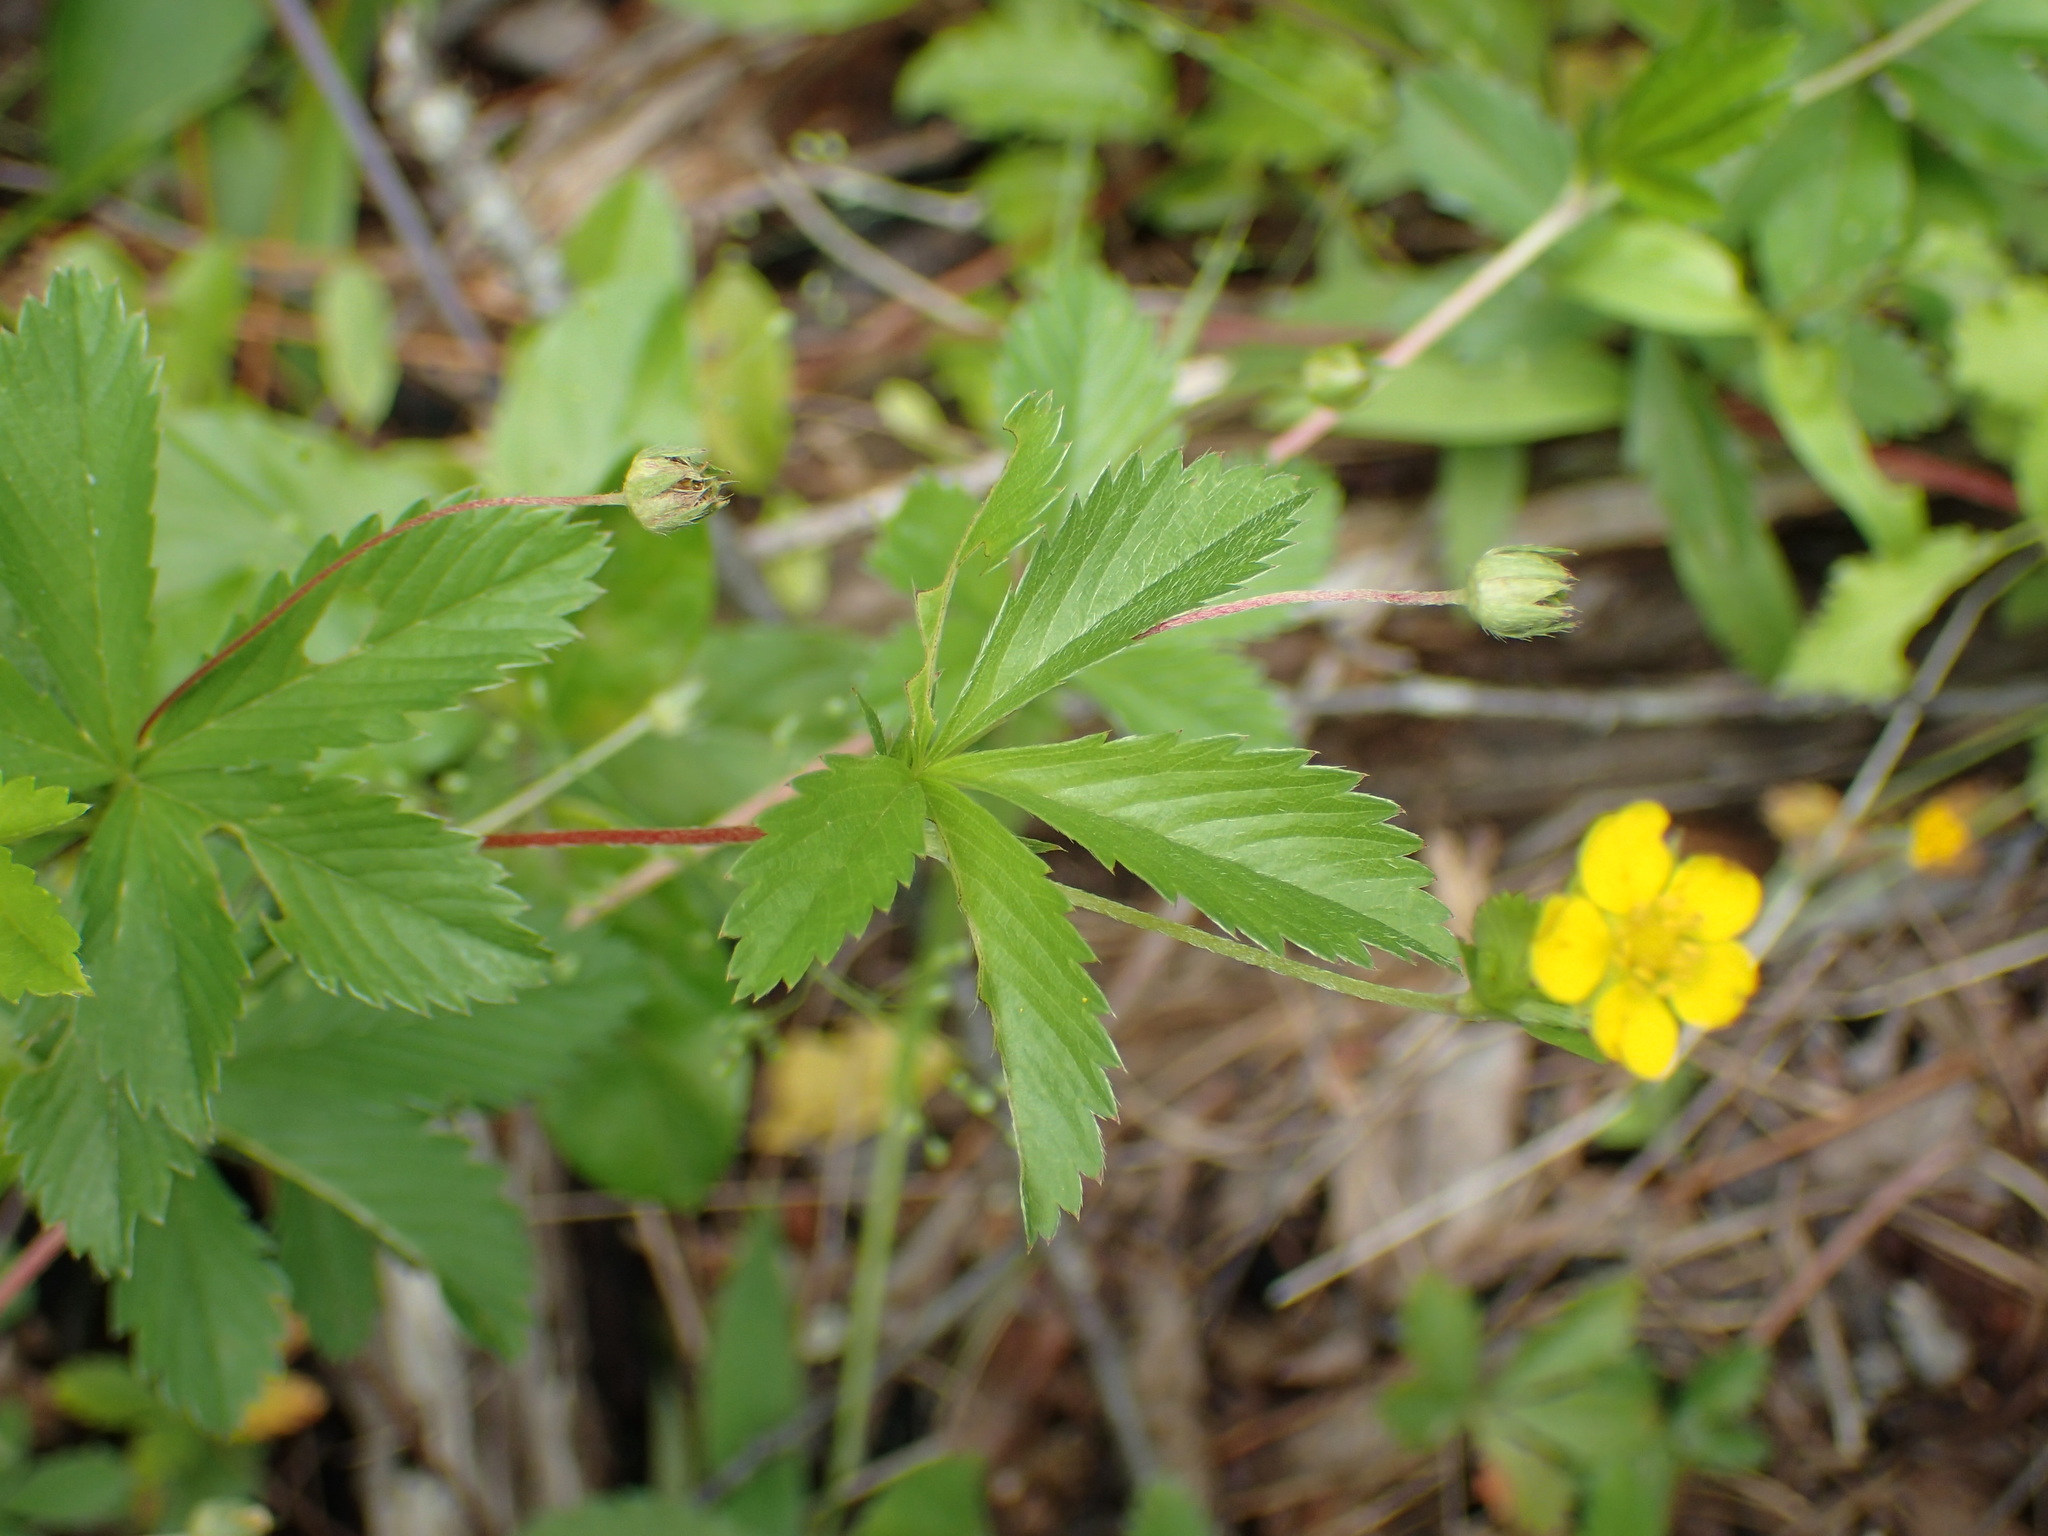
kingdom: Plantae
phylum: Tracheophyta
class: Magnoliopsida
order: Rosales
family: Rosaceae
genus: Potentilla
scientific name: Potentilla simplex
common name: Old field cinquefoil
